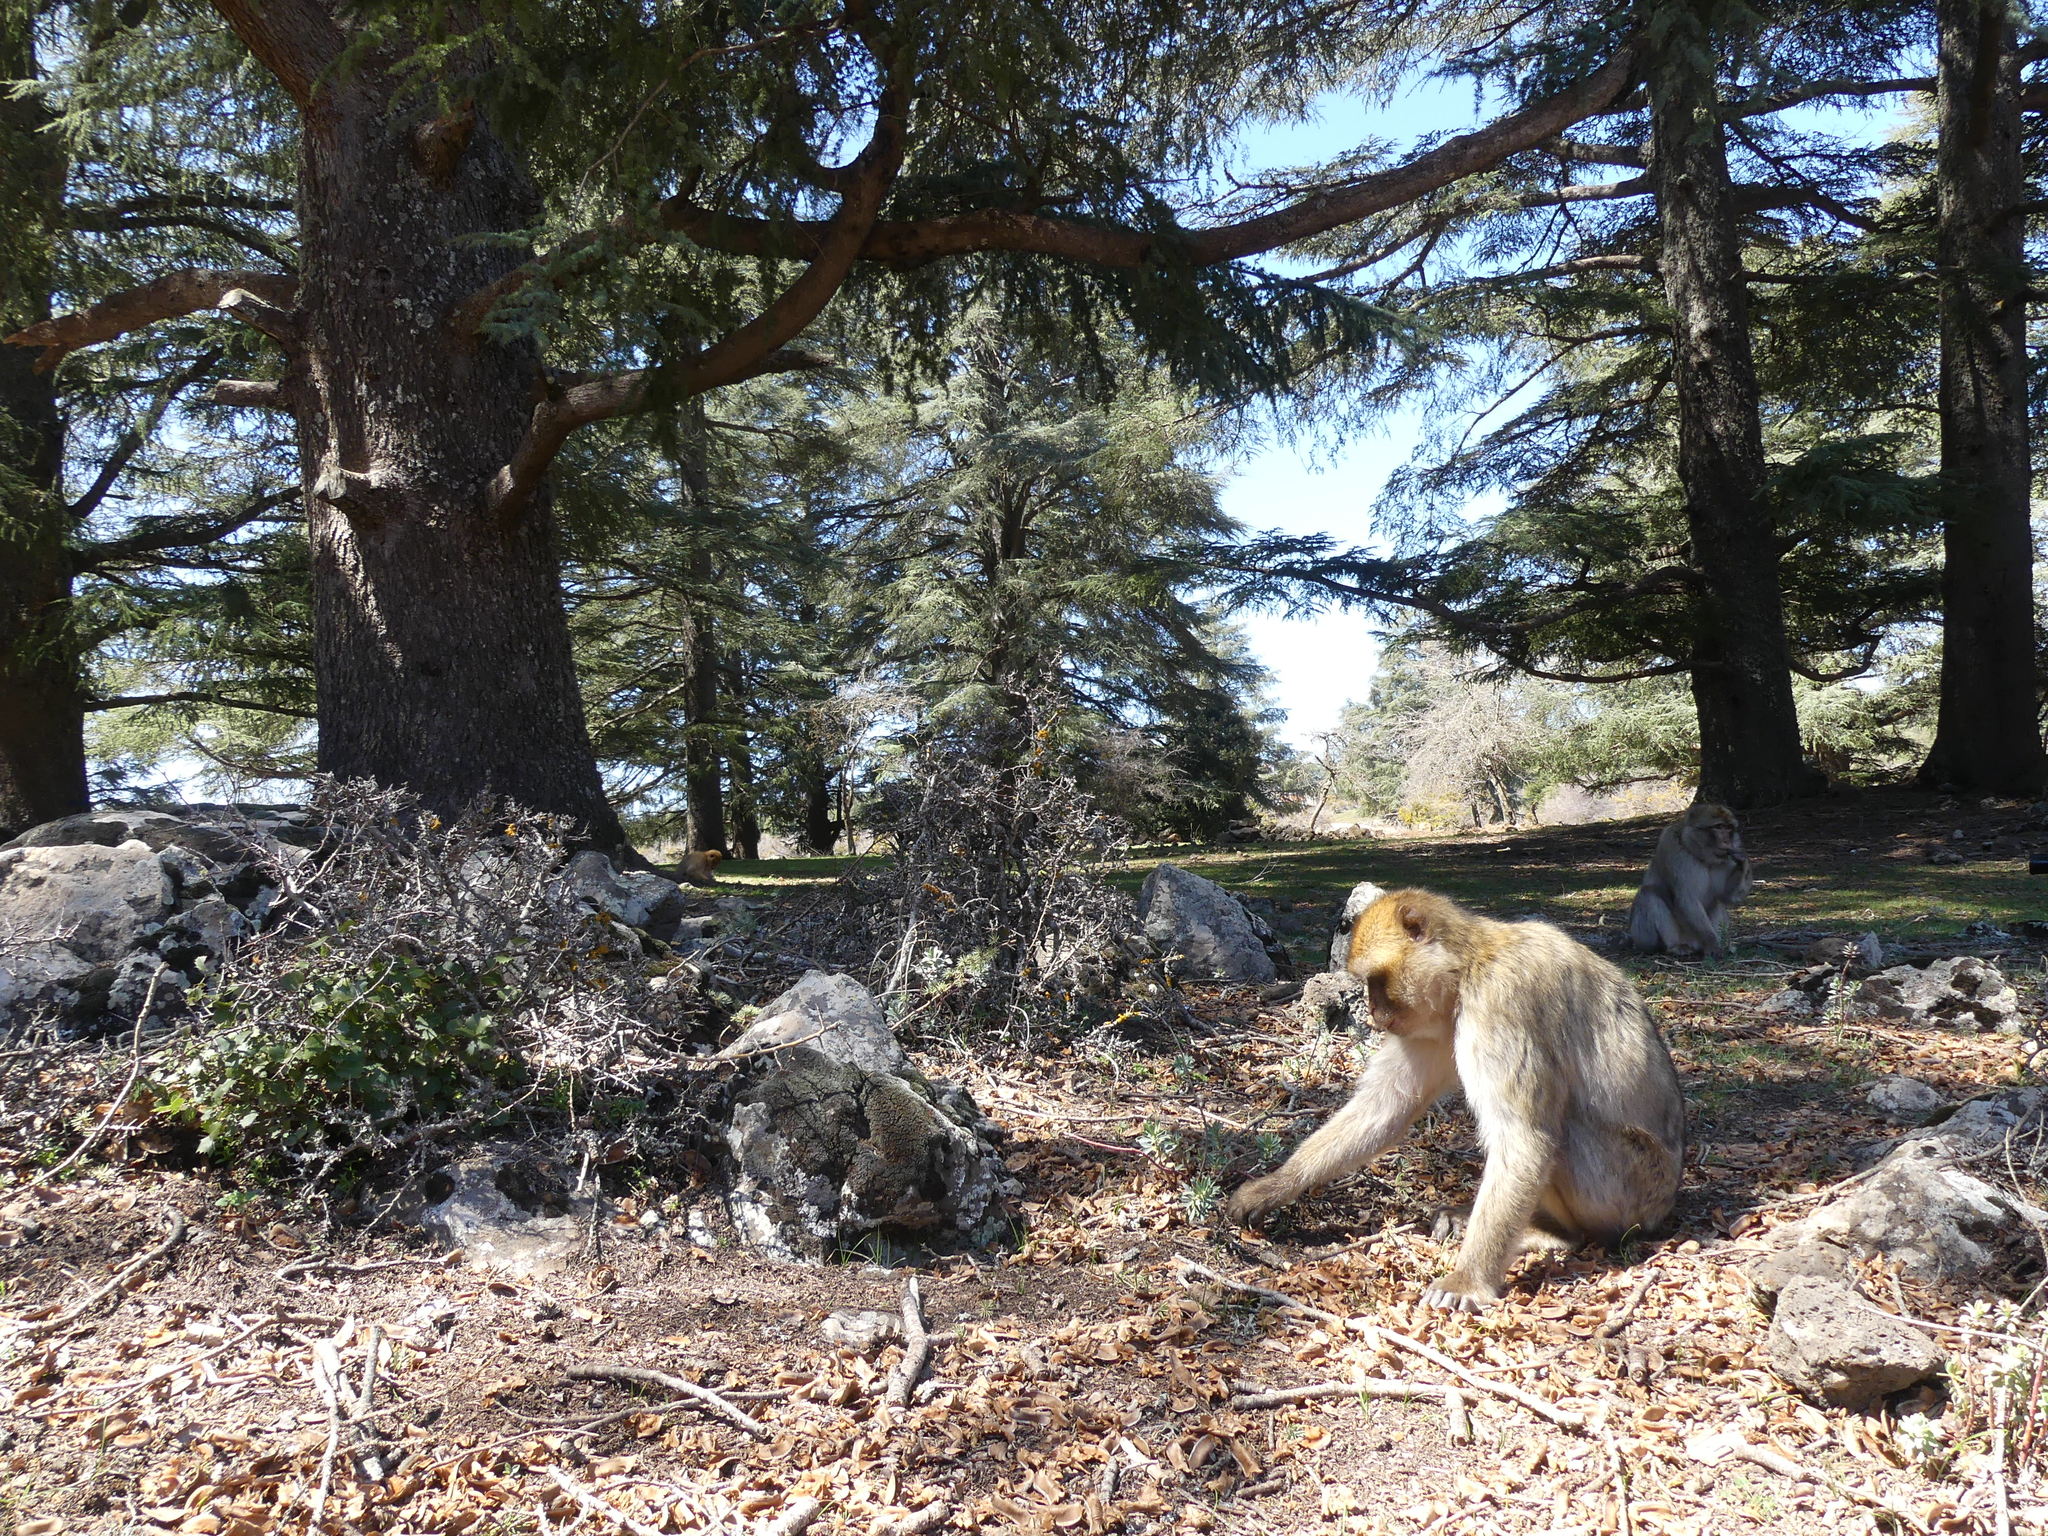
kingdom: Animalia
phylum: Chordata
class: Mammalia
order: Primates
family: Cercopithecidae
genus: Macaca
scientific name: Macaca sylvanus
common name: Barbary macaque
